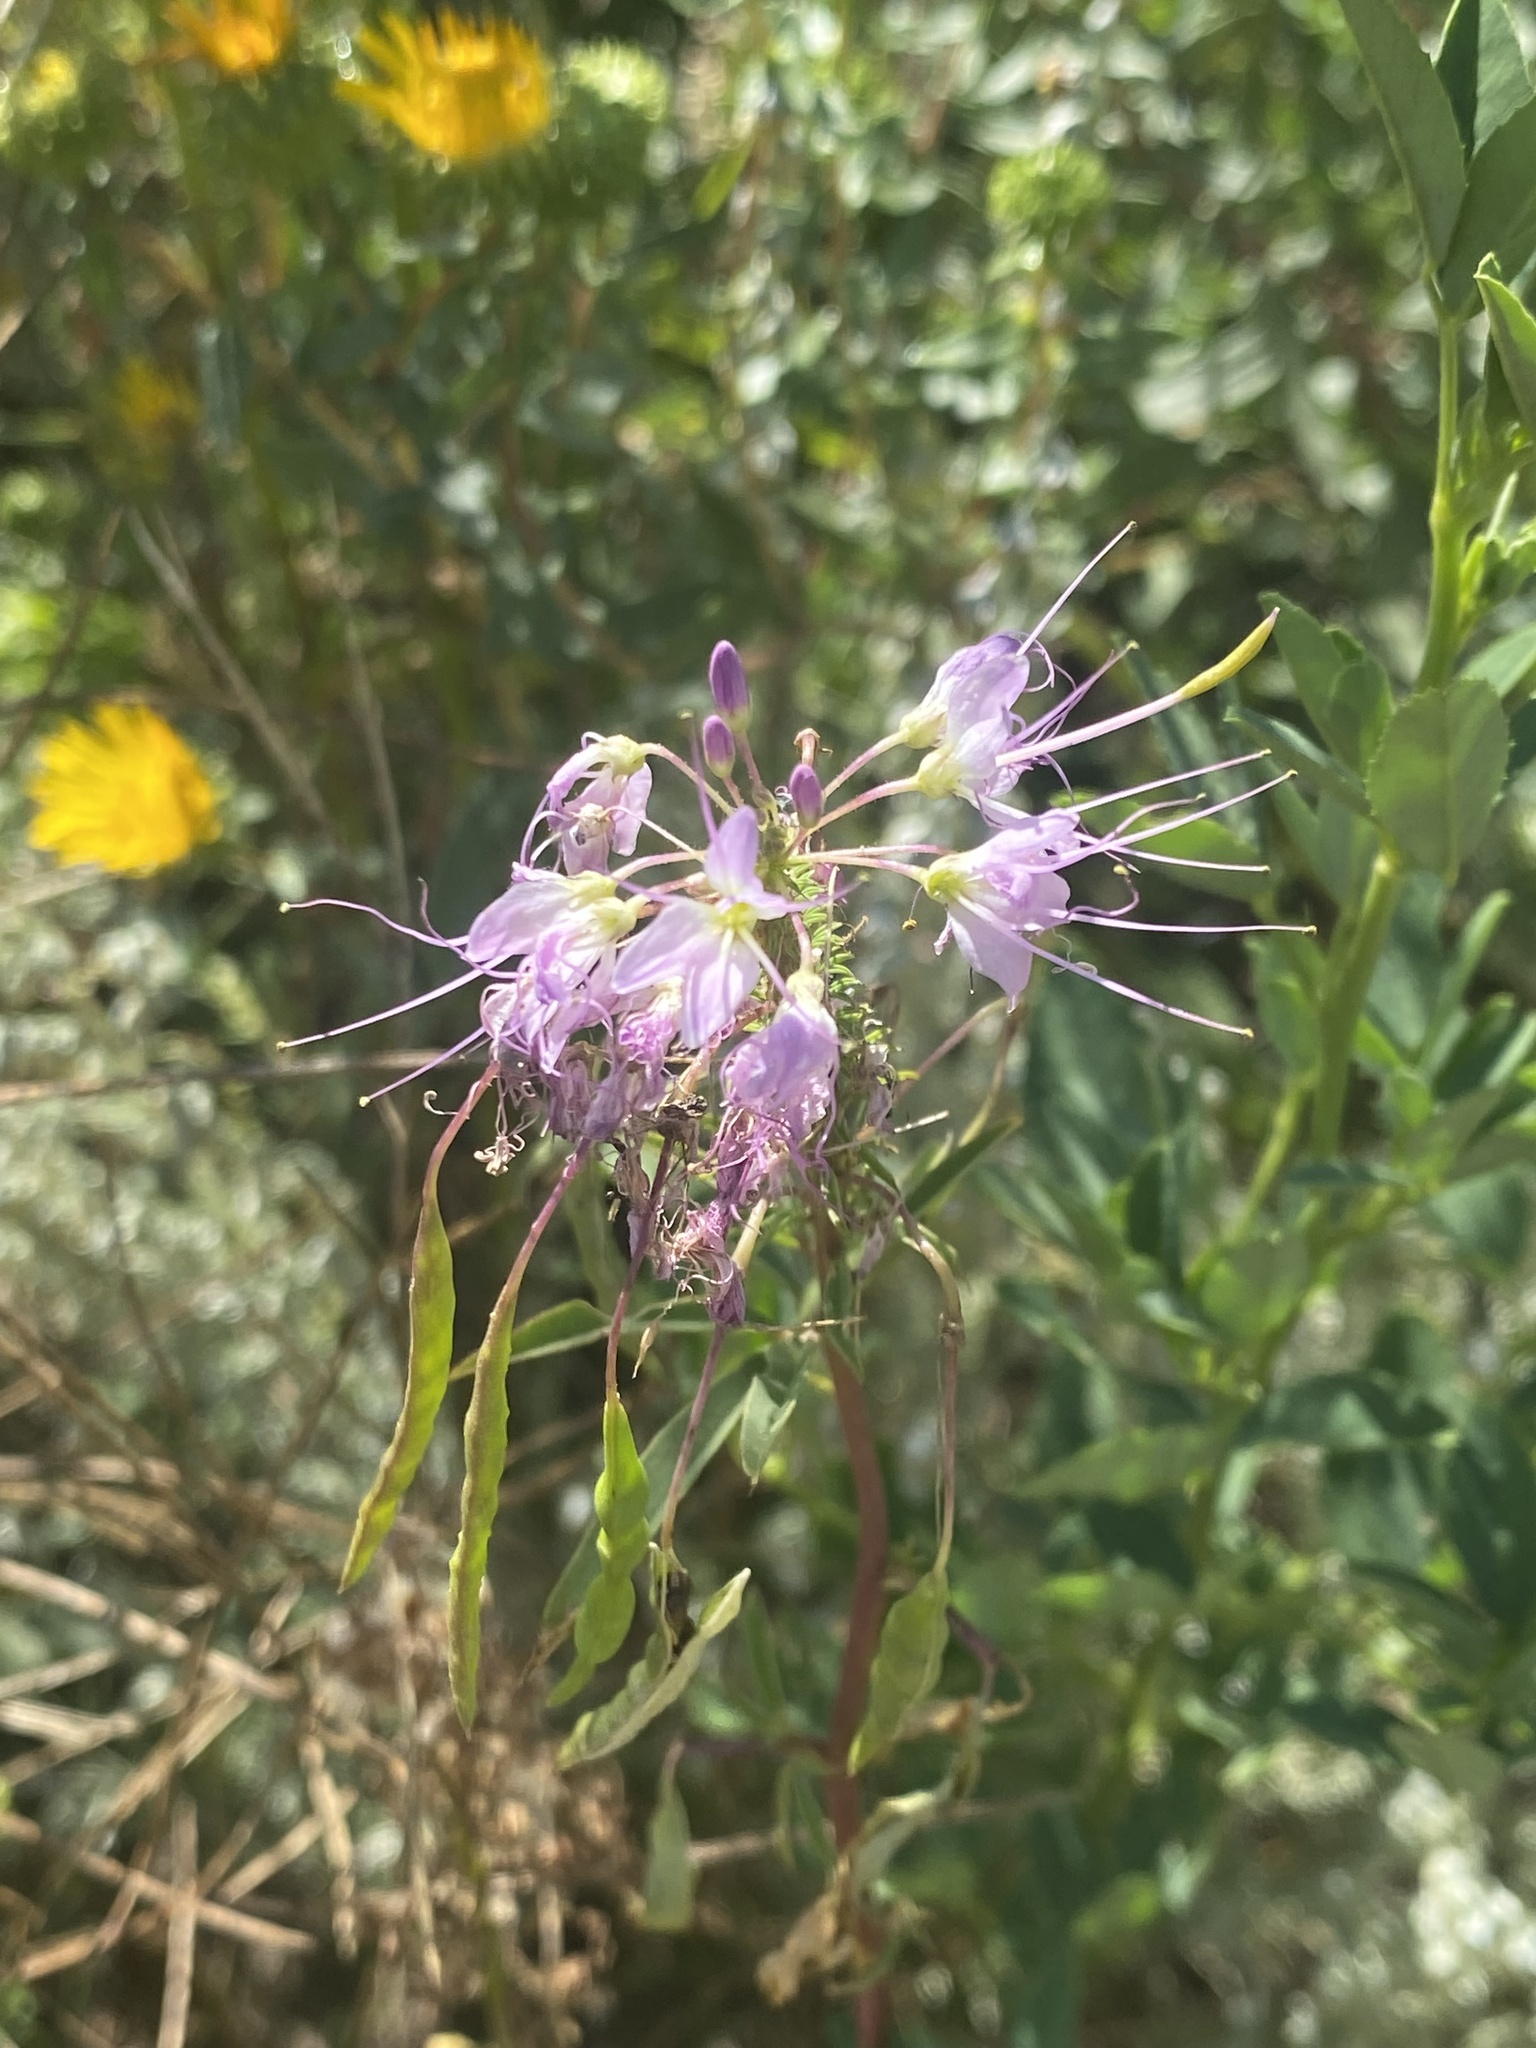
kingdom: Plantae
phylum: Tracheophyta
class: Magnoliopsida
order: Brassicales
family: Cleomaceae
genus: Cleomella
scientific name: Cleomella serrulata
